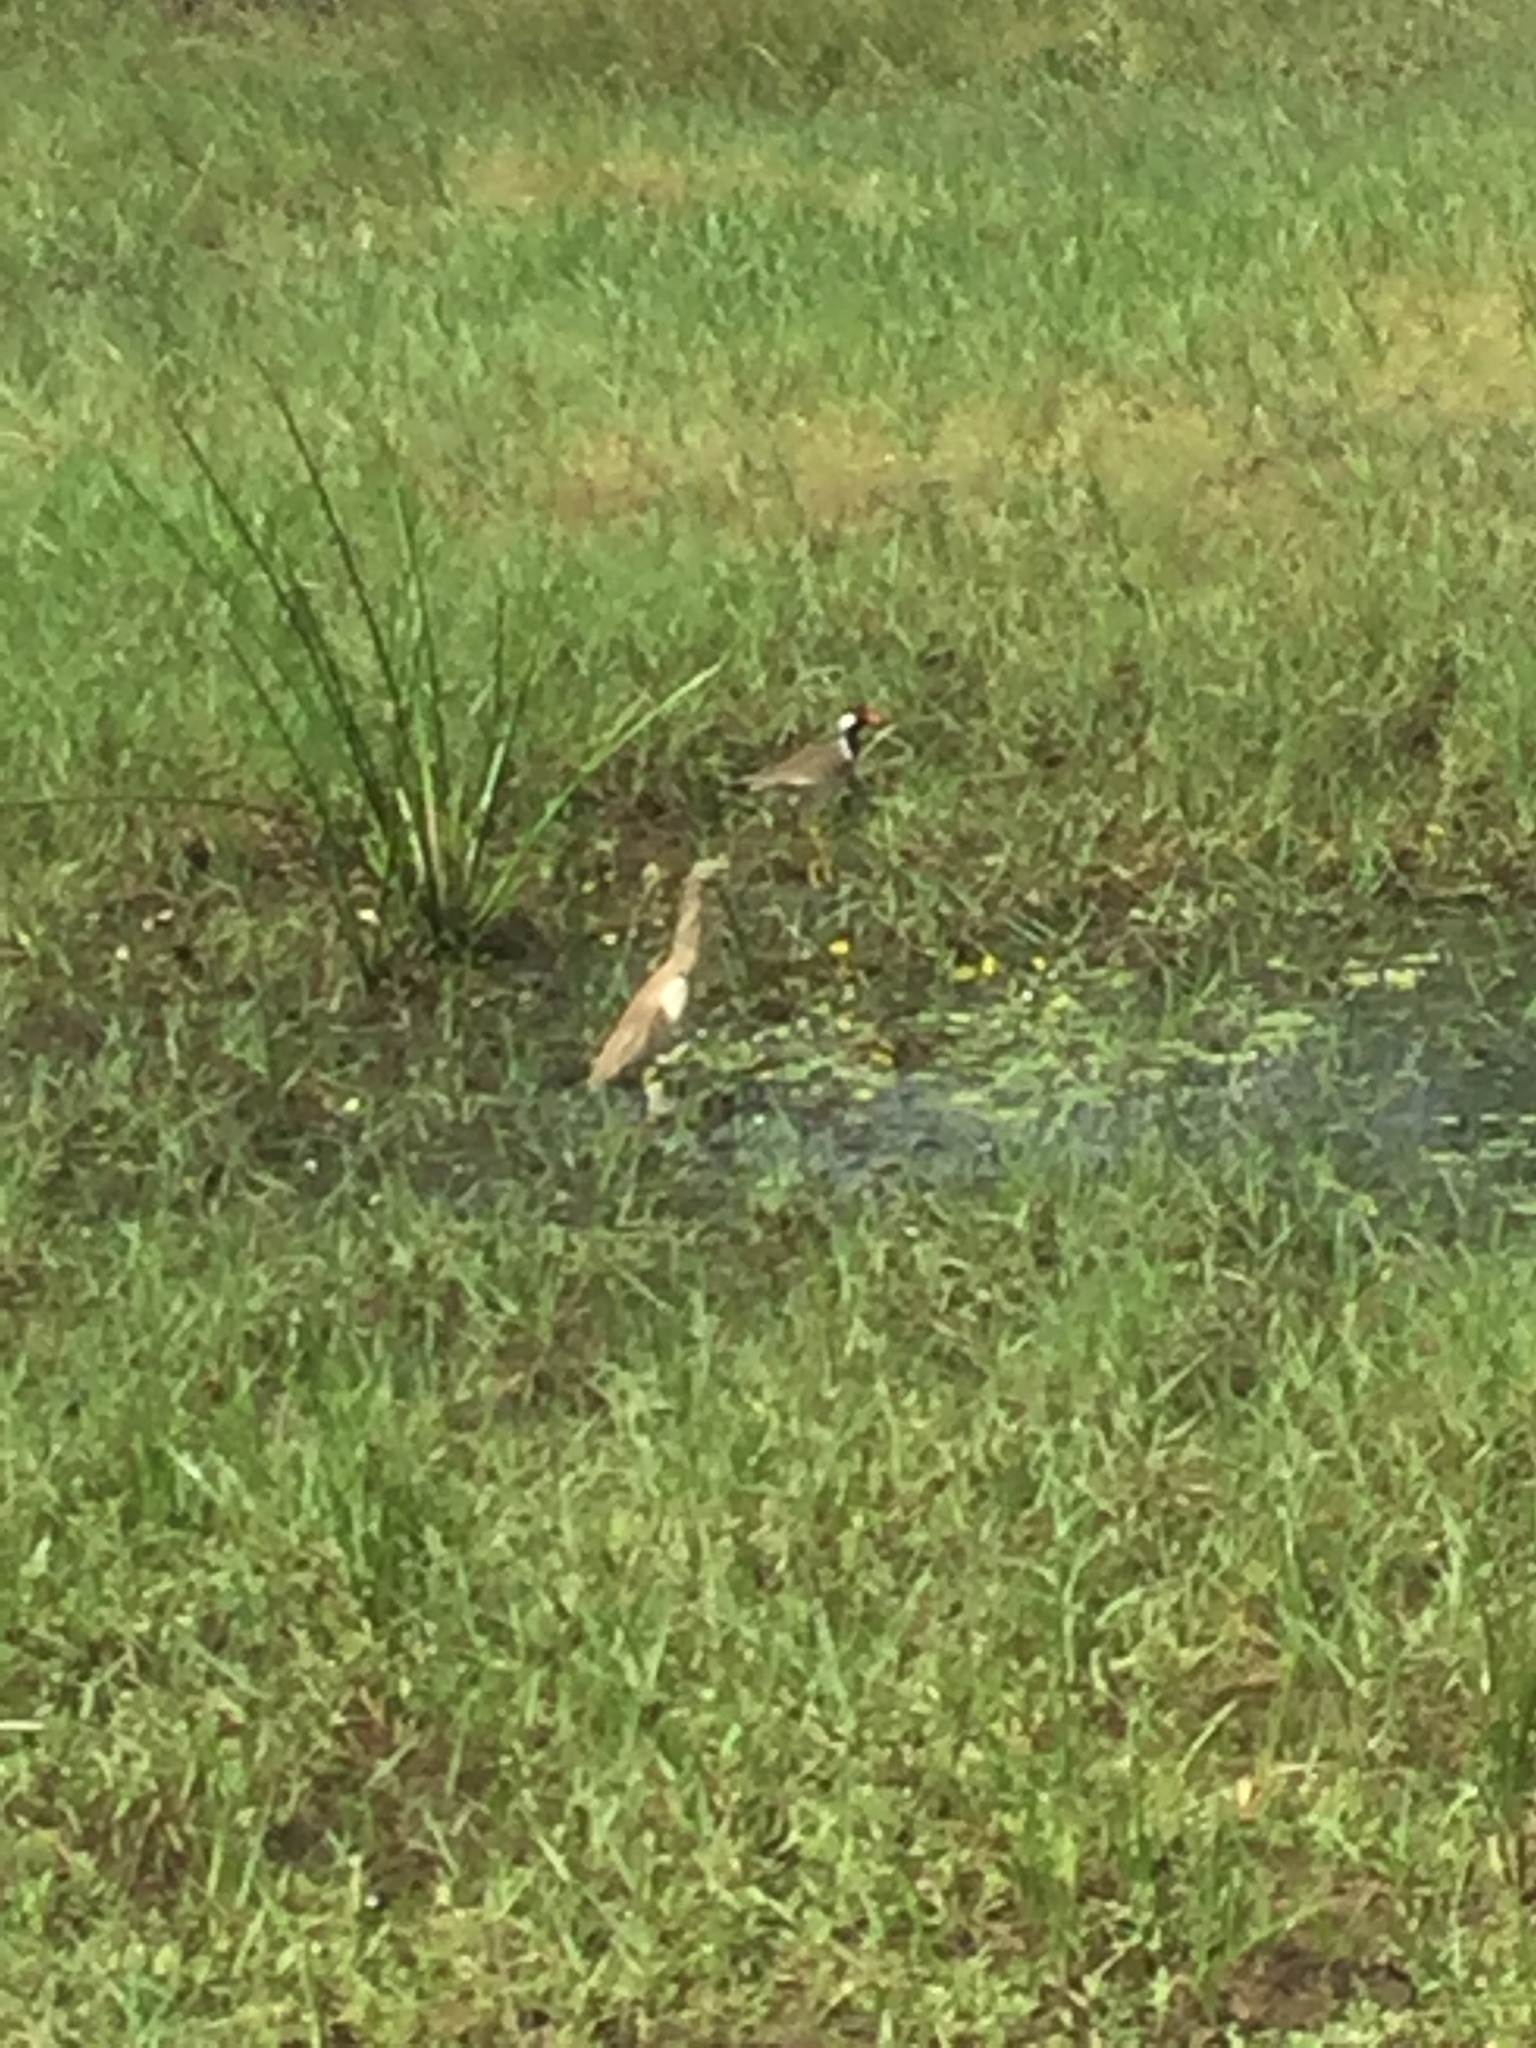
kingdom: Animalia
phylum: Chordata
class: Aves
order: Pelecaniformes
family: Ardeidae
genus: Ardeola
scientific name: Ardeola grayii
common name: Indian pond heron
